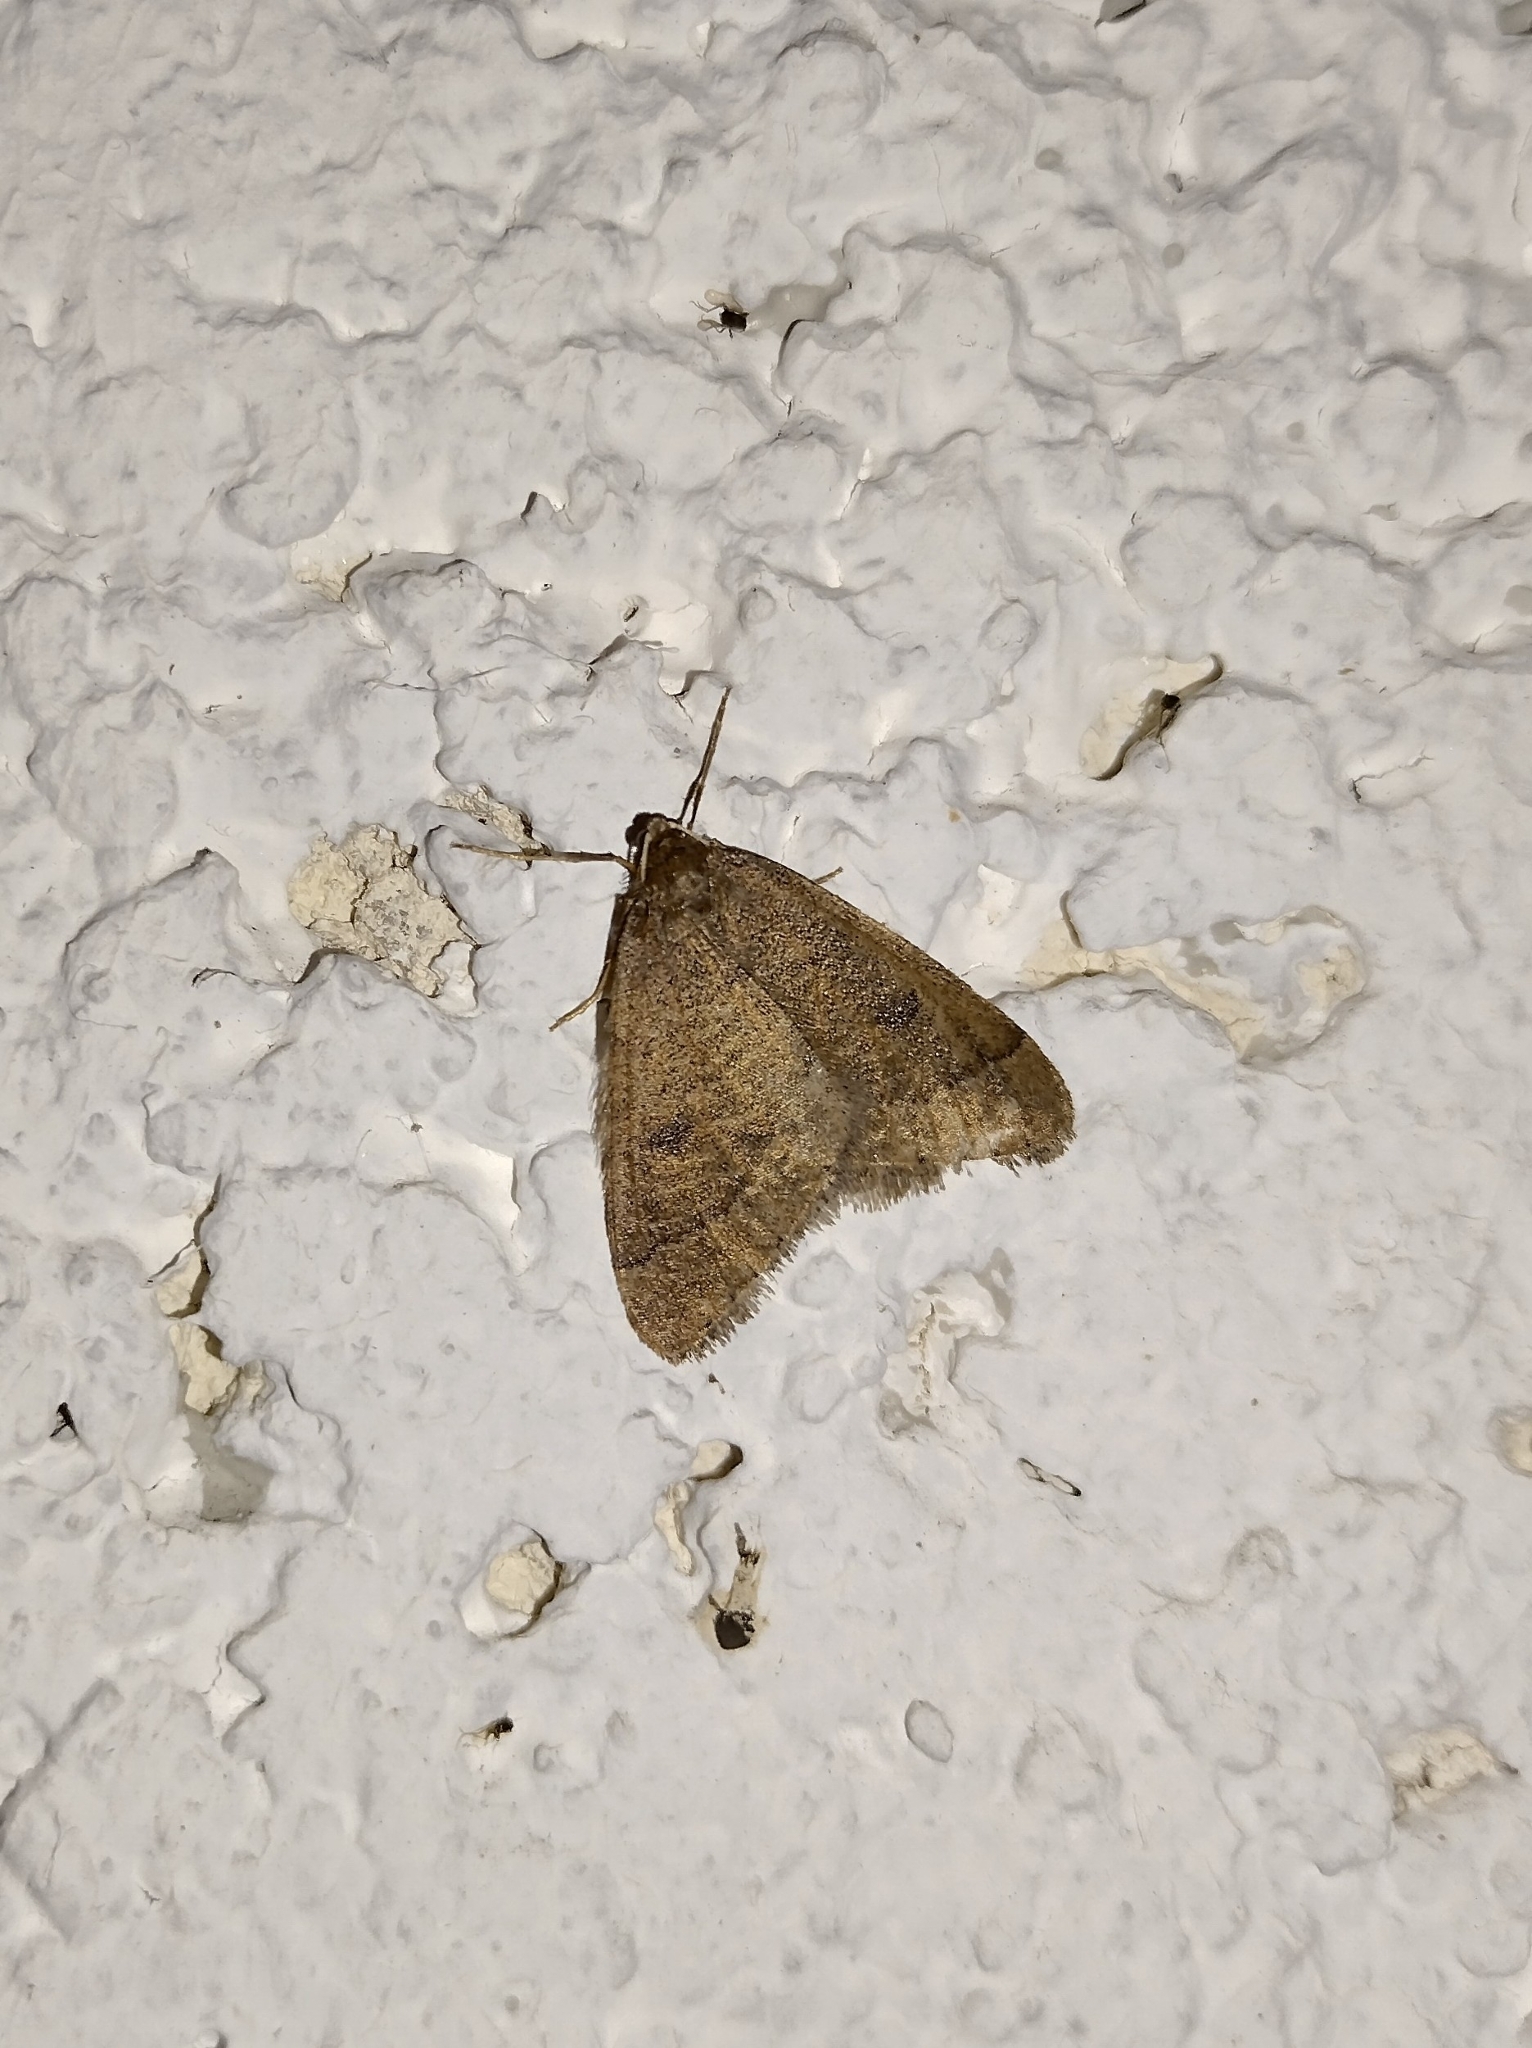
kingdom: Animalia
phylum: Arthropoda
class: Insecta
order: Lepidoptera
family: Geometridae
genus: Theria
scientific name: Theria primaria
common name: Early moth
